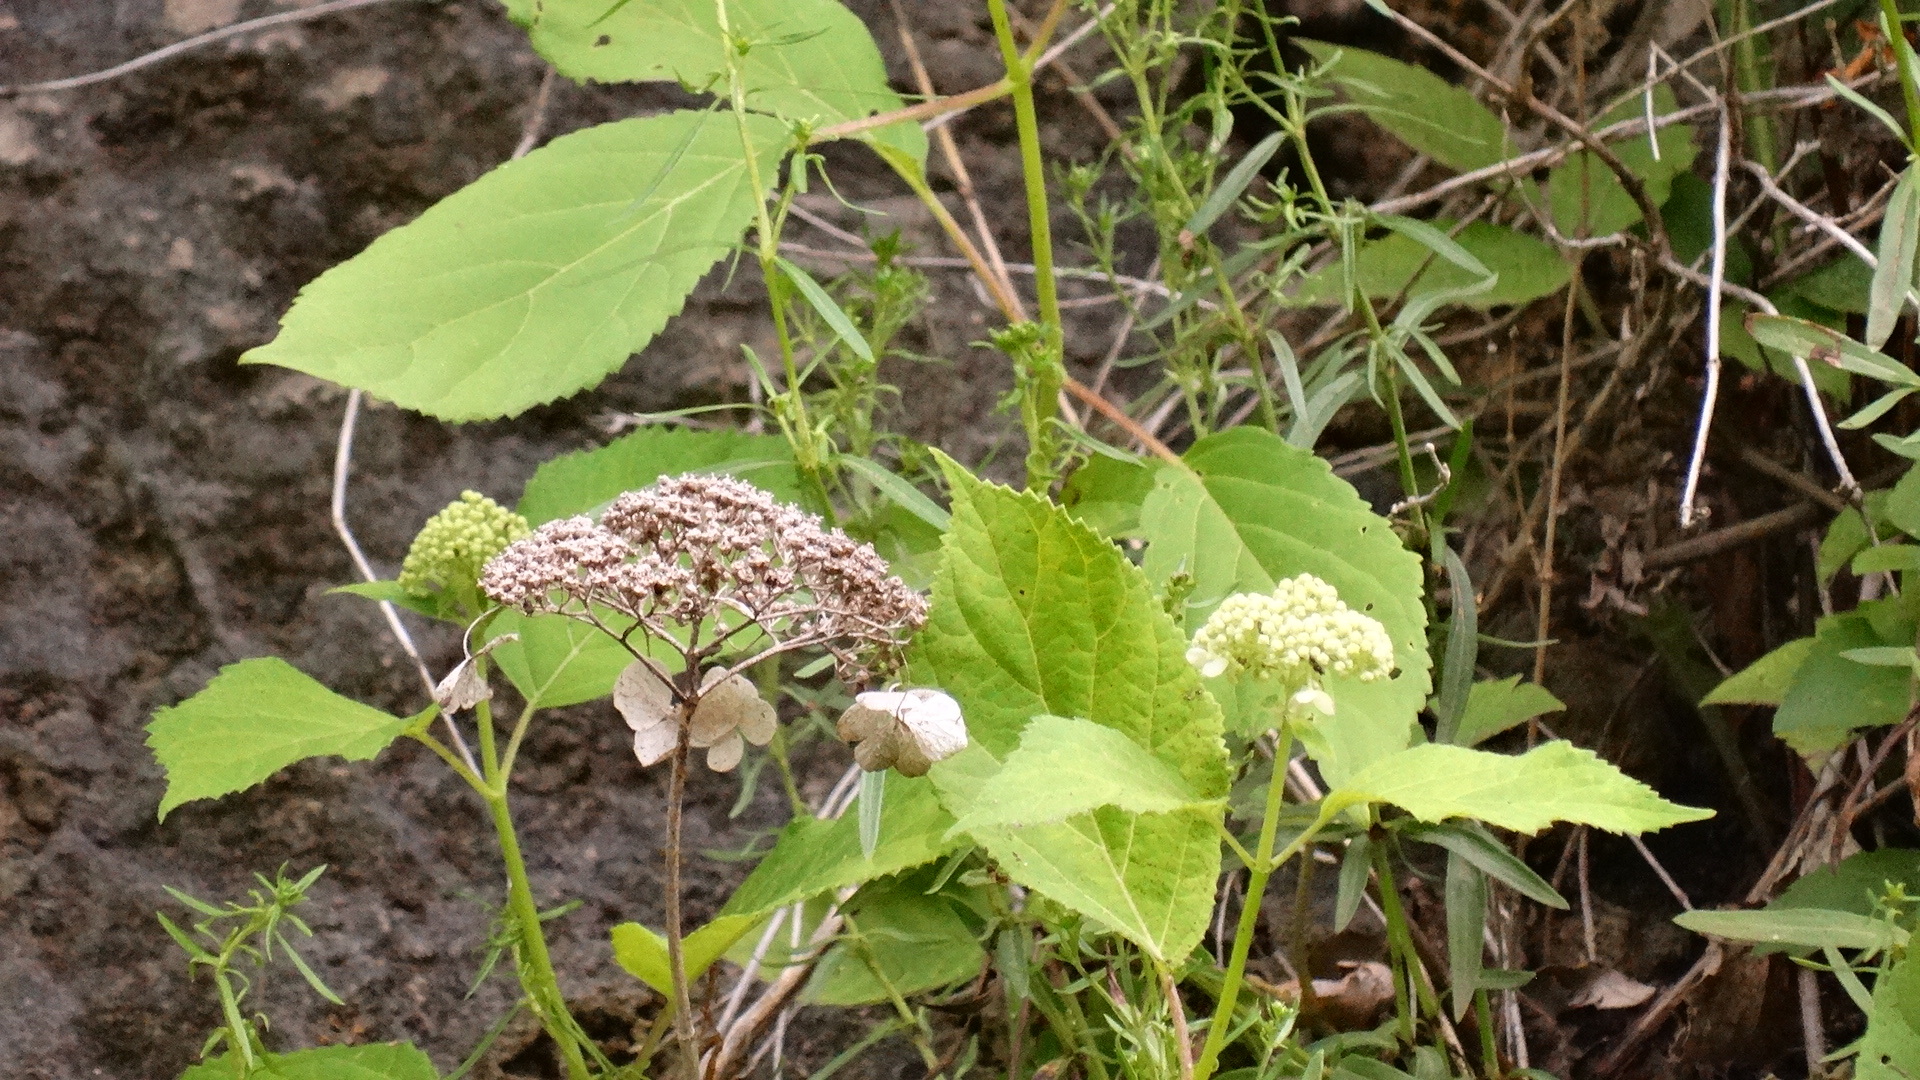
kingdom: Plantae
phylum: Tracheophyta
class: Magnoliopsida
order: Cornales
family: Hydrangeaceae
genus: Hydrangea
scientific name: Hydrangea arborescens
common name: Sevenbark
